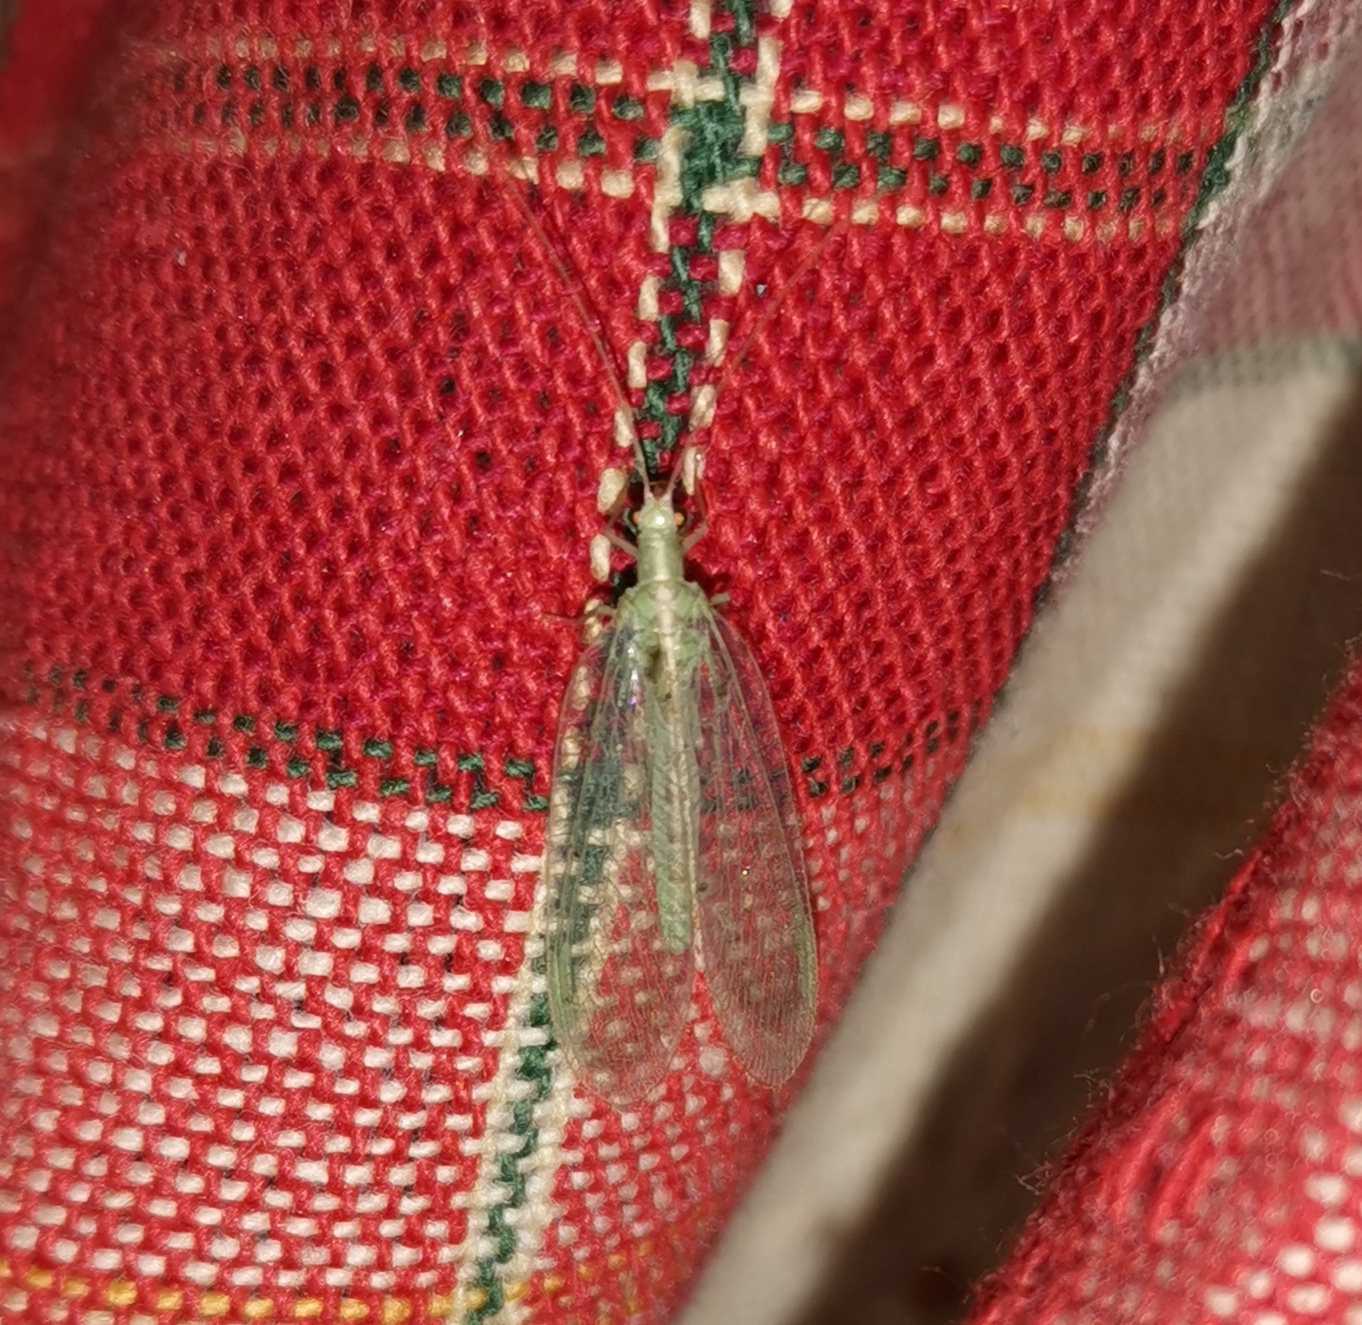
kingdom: Animalia
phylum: Arthropoda
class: Insecta
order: Neuroptera
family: Chrysopidae
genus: Chrysoperla
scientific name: Chrysoperla
